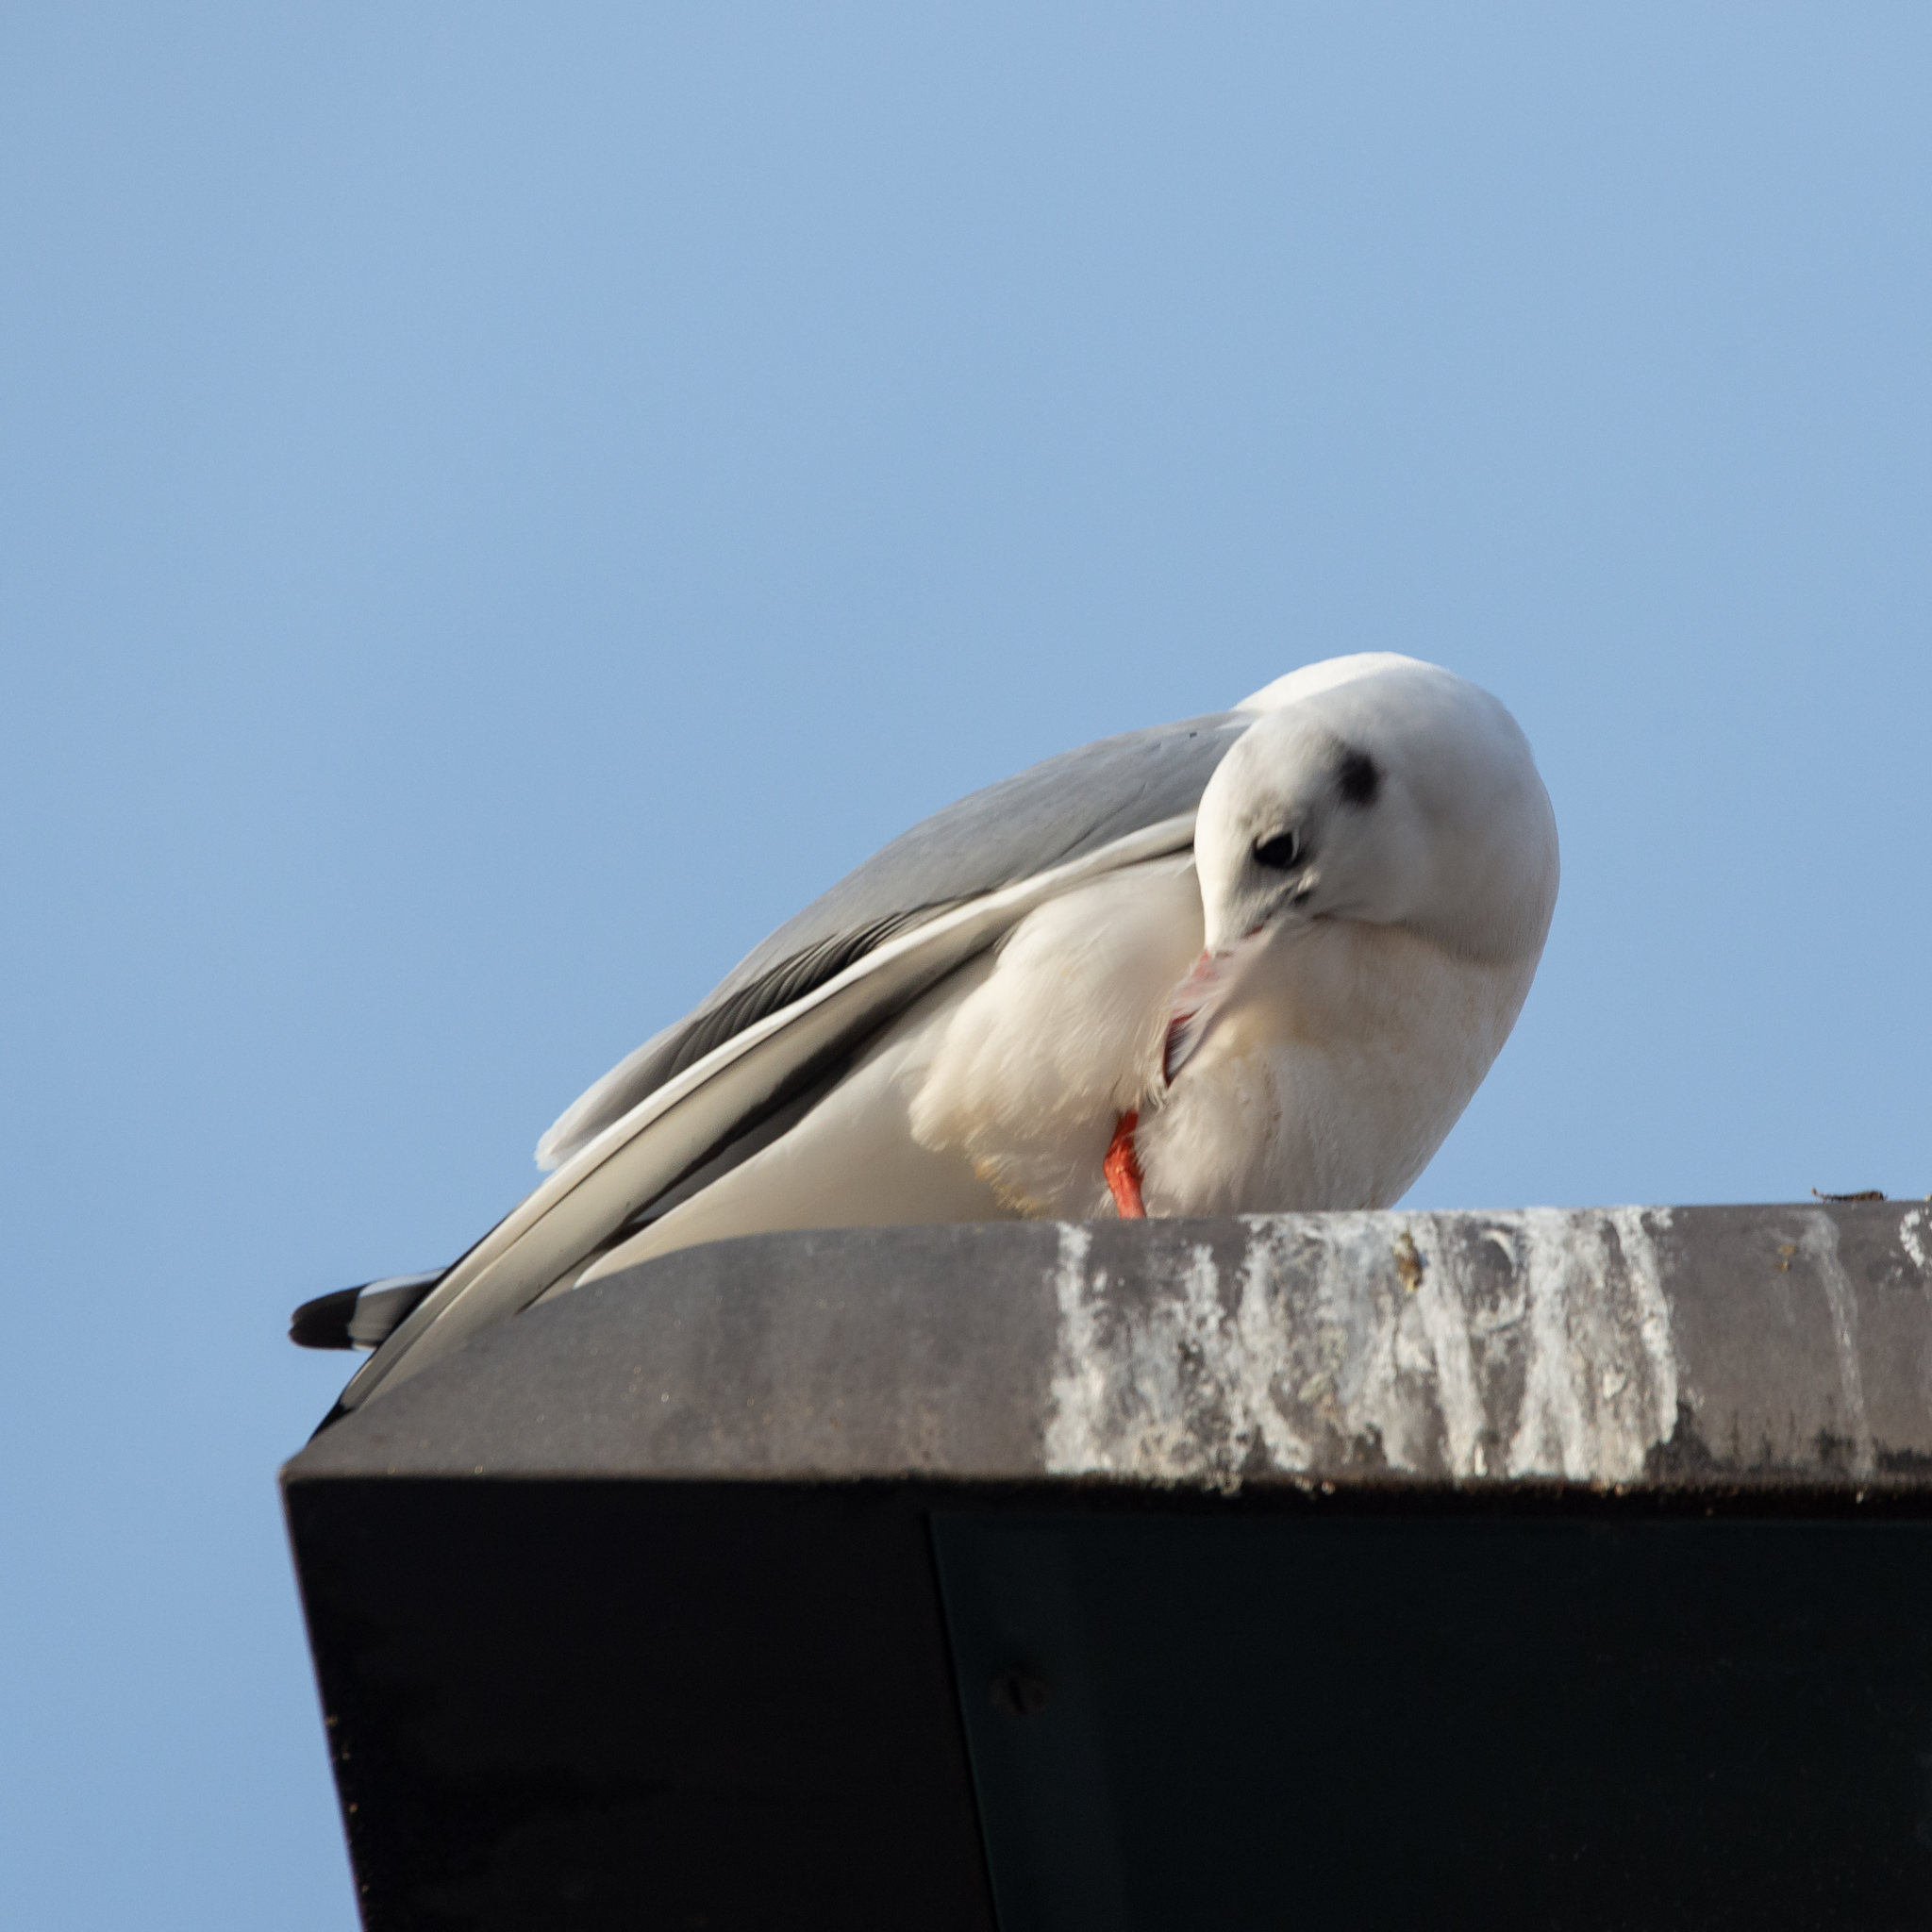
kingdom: Animalia
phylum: Chordata
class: Aves
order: Charadriiformes
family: Laridae
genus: Chroicocephalus
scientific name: Chroicocephalus ridibundus
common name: Black-headed gull
